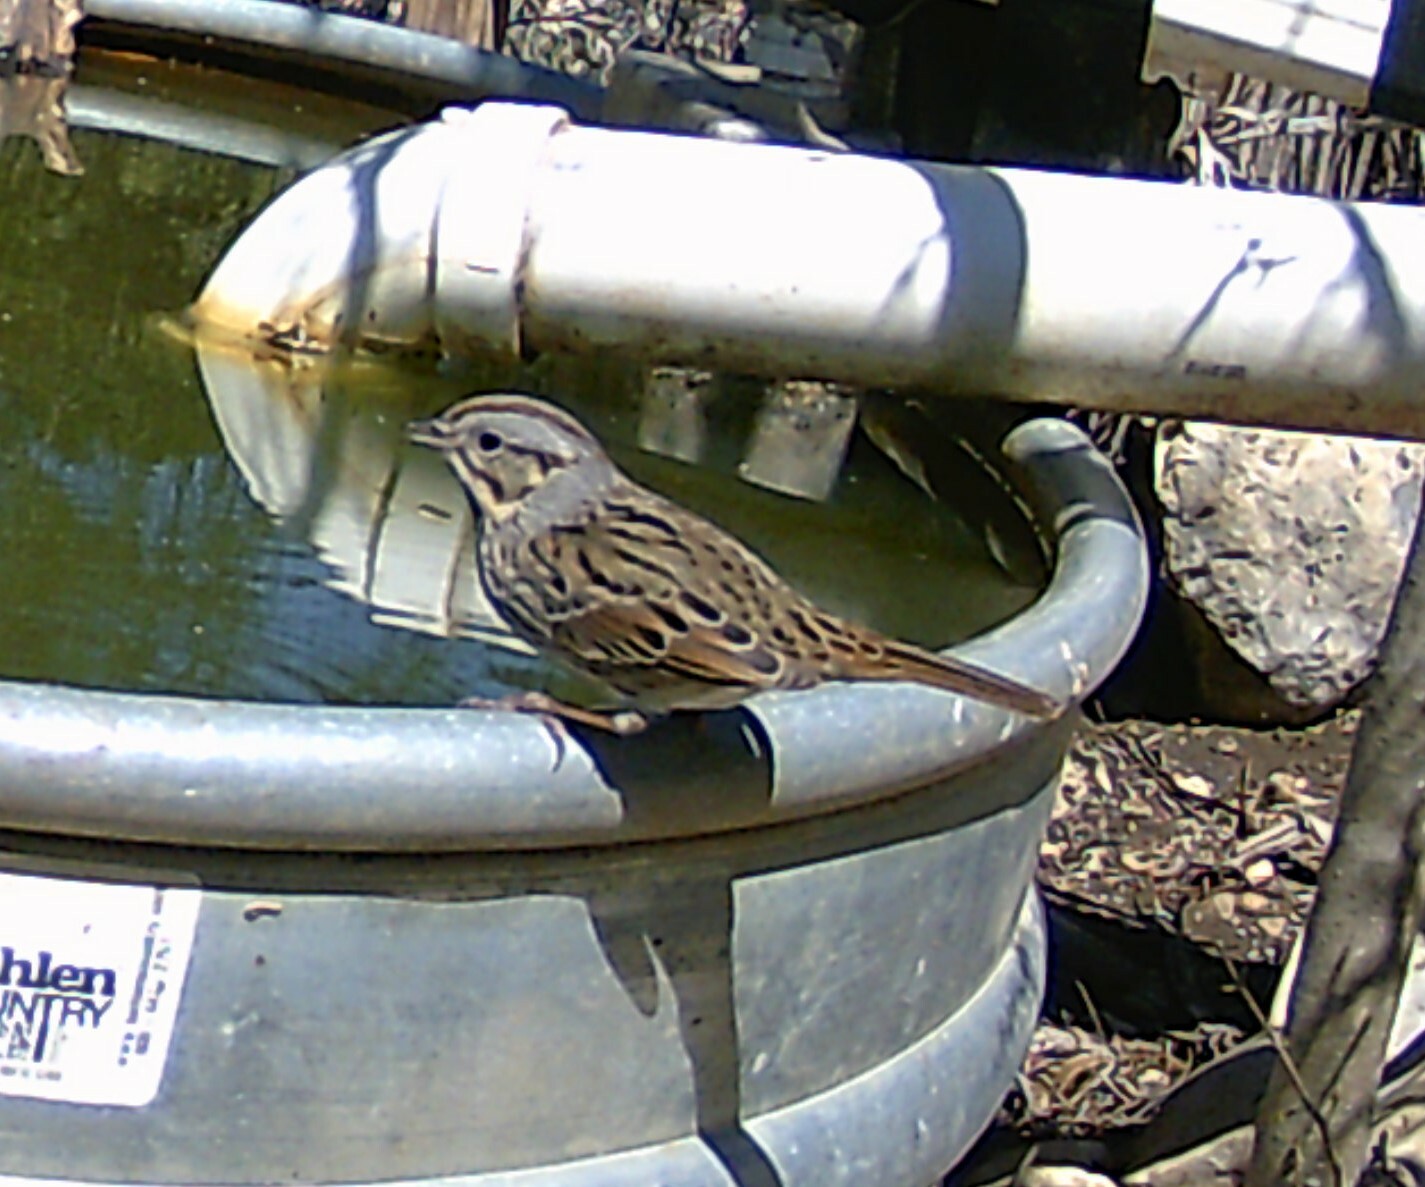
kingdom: Animalia
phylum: Chordata
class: Aves
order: Passeriformes
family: Passerellidae
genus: Melospiza
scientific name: Melospiza lincolnii
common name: Lincoln's sparrow
